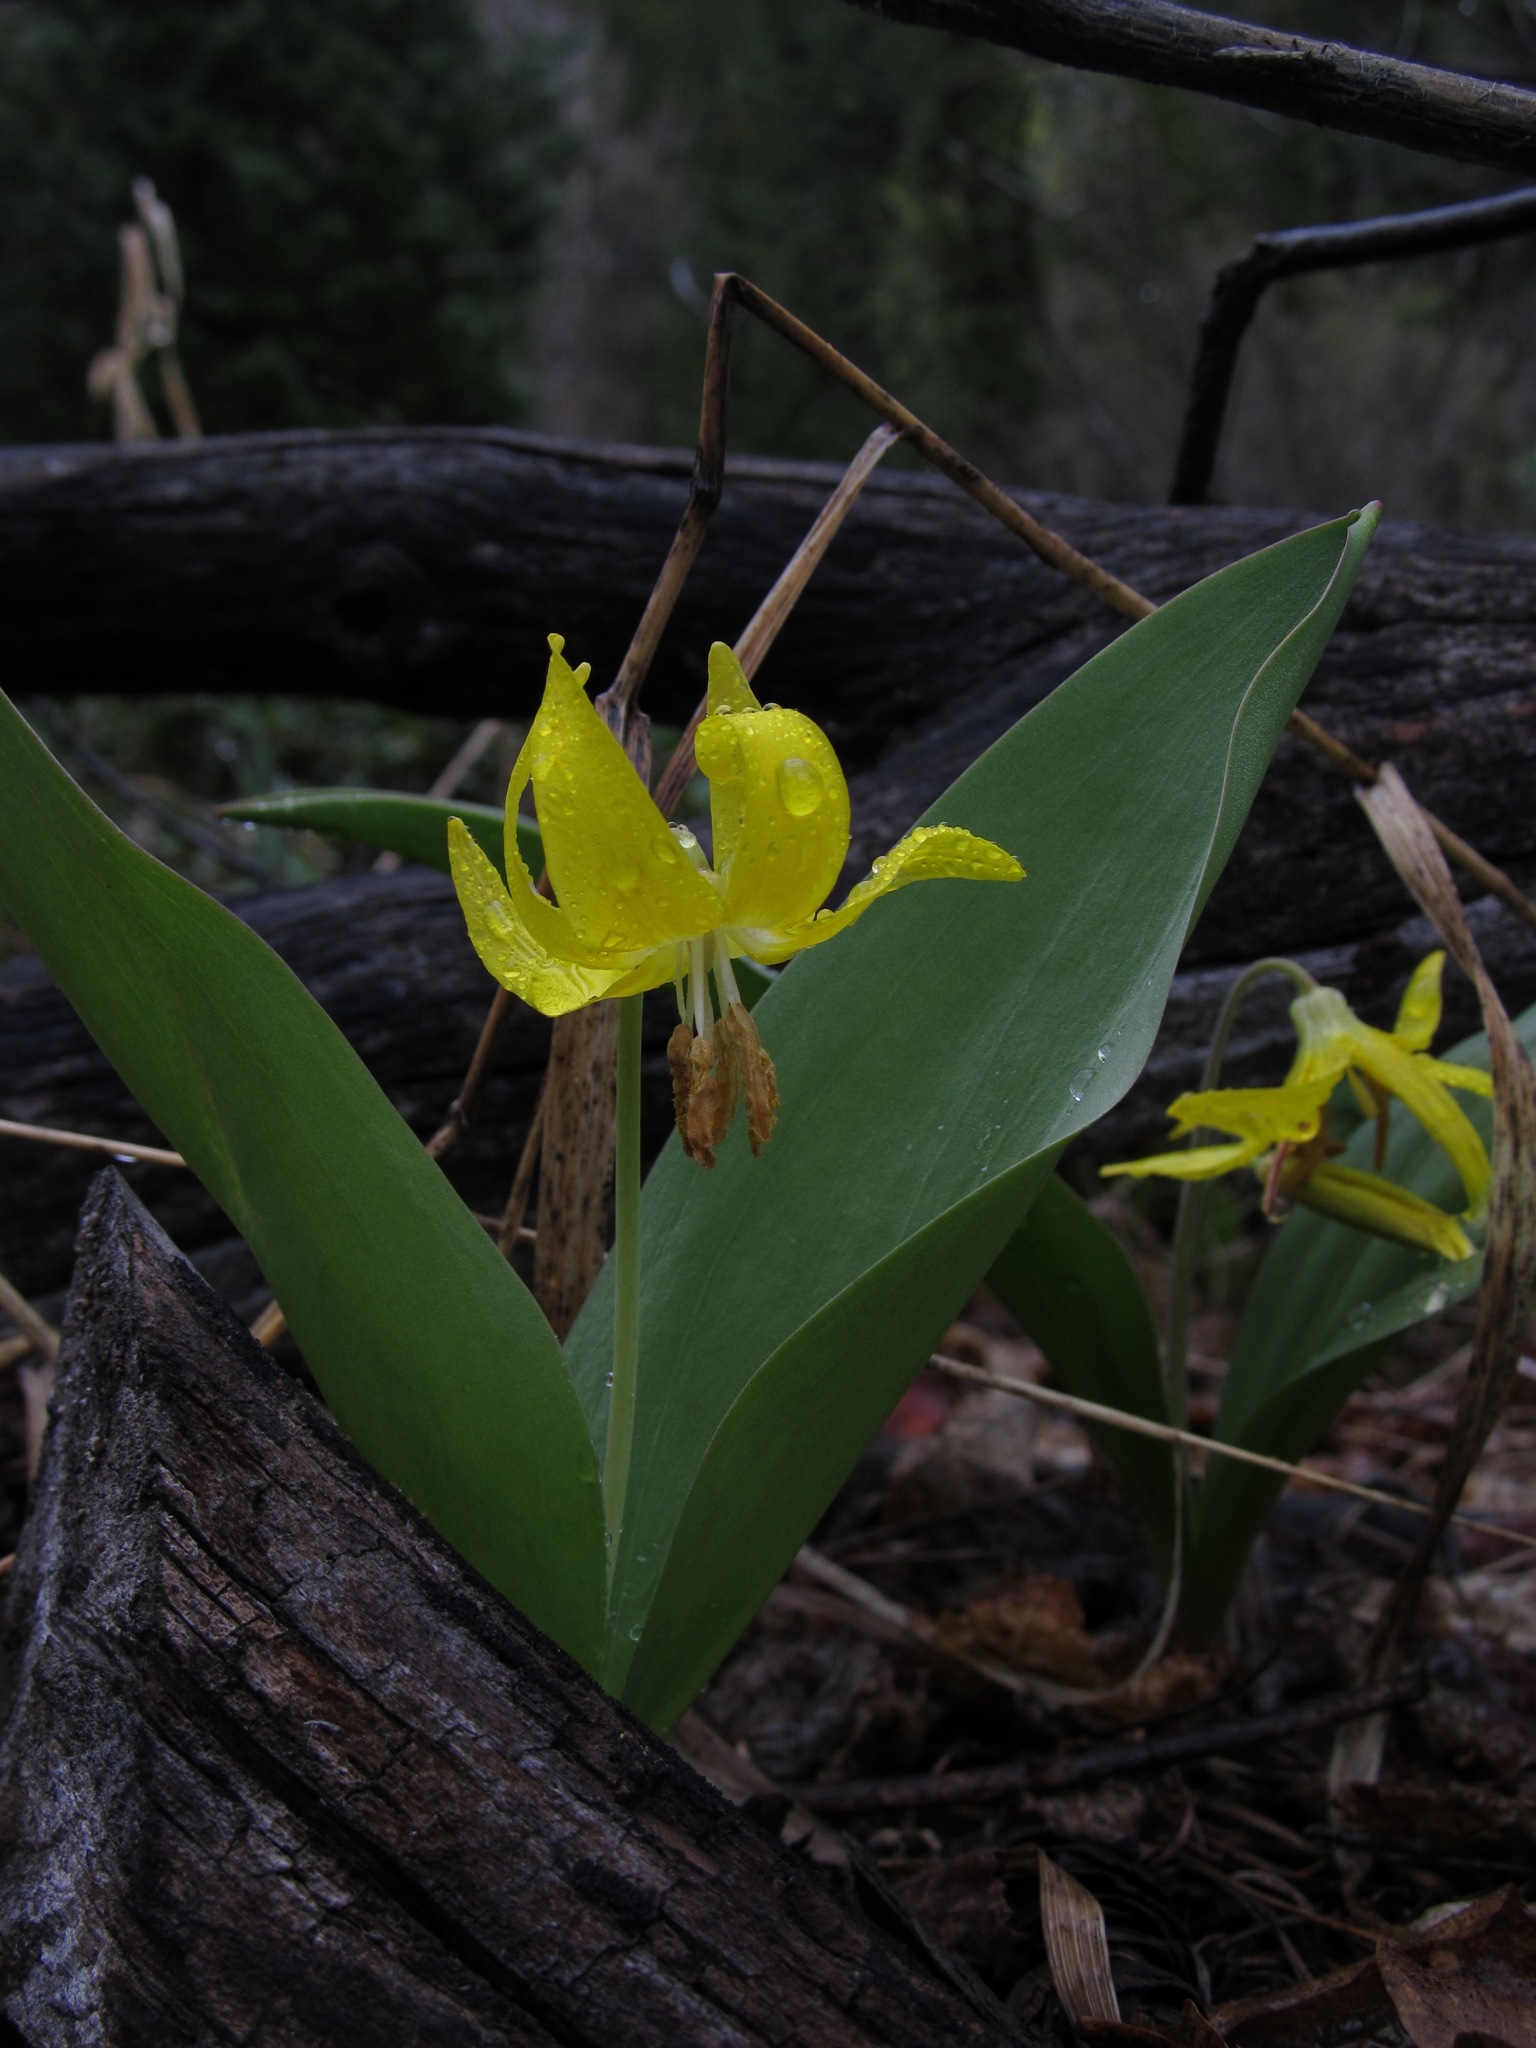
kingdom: Plantae
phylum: Tracheophyta
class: Liliopsida
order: Liliales
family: Liliaceae
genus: Erythronium
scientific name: Erythronium grandiflorum
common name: Avalanche-lily
